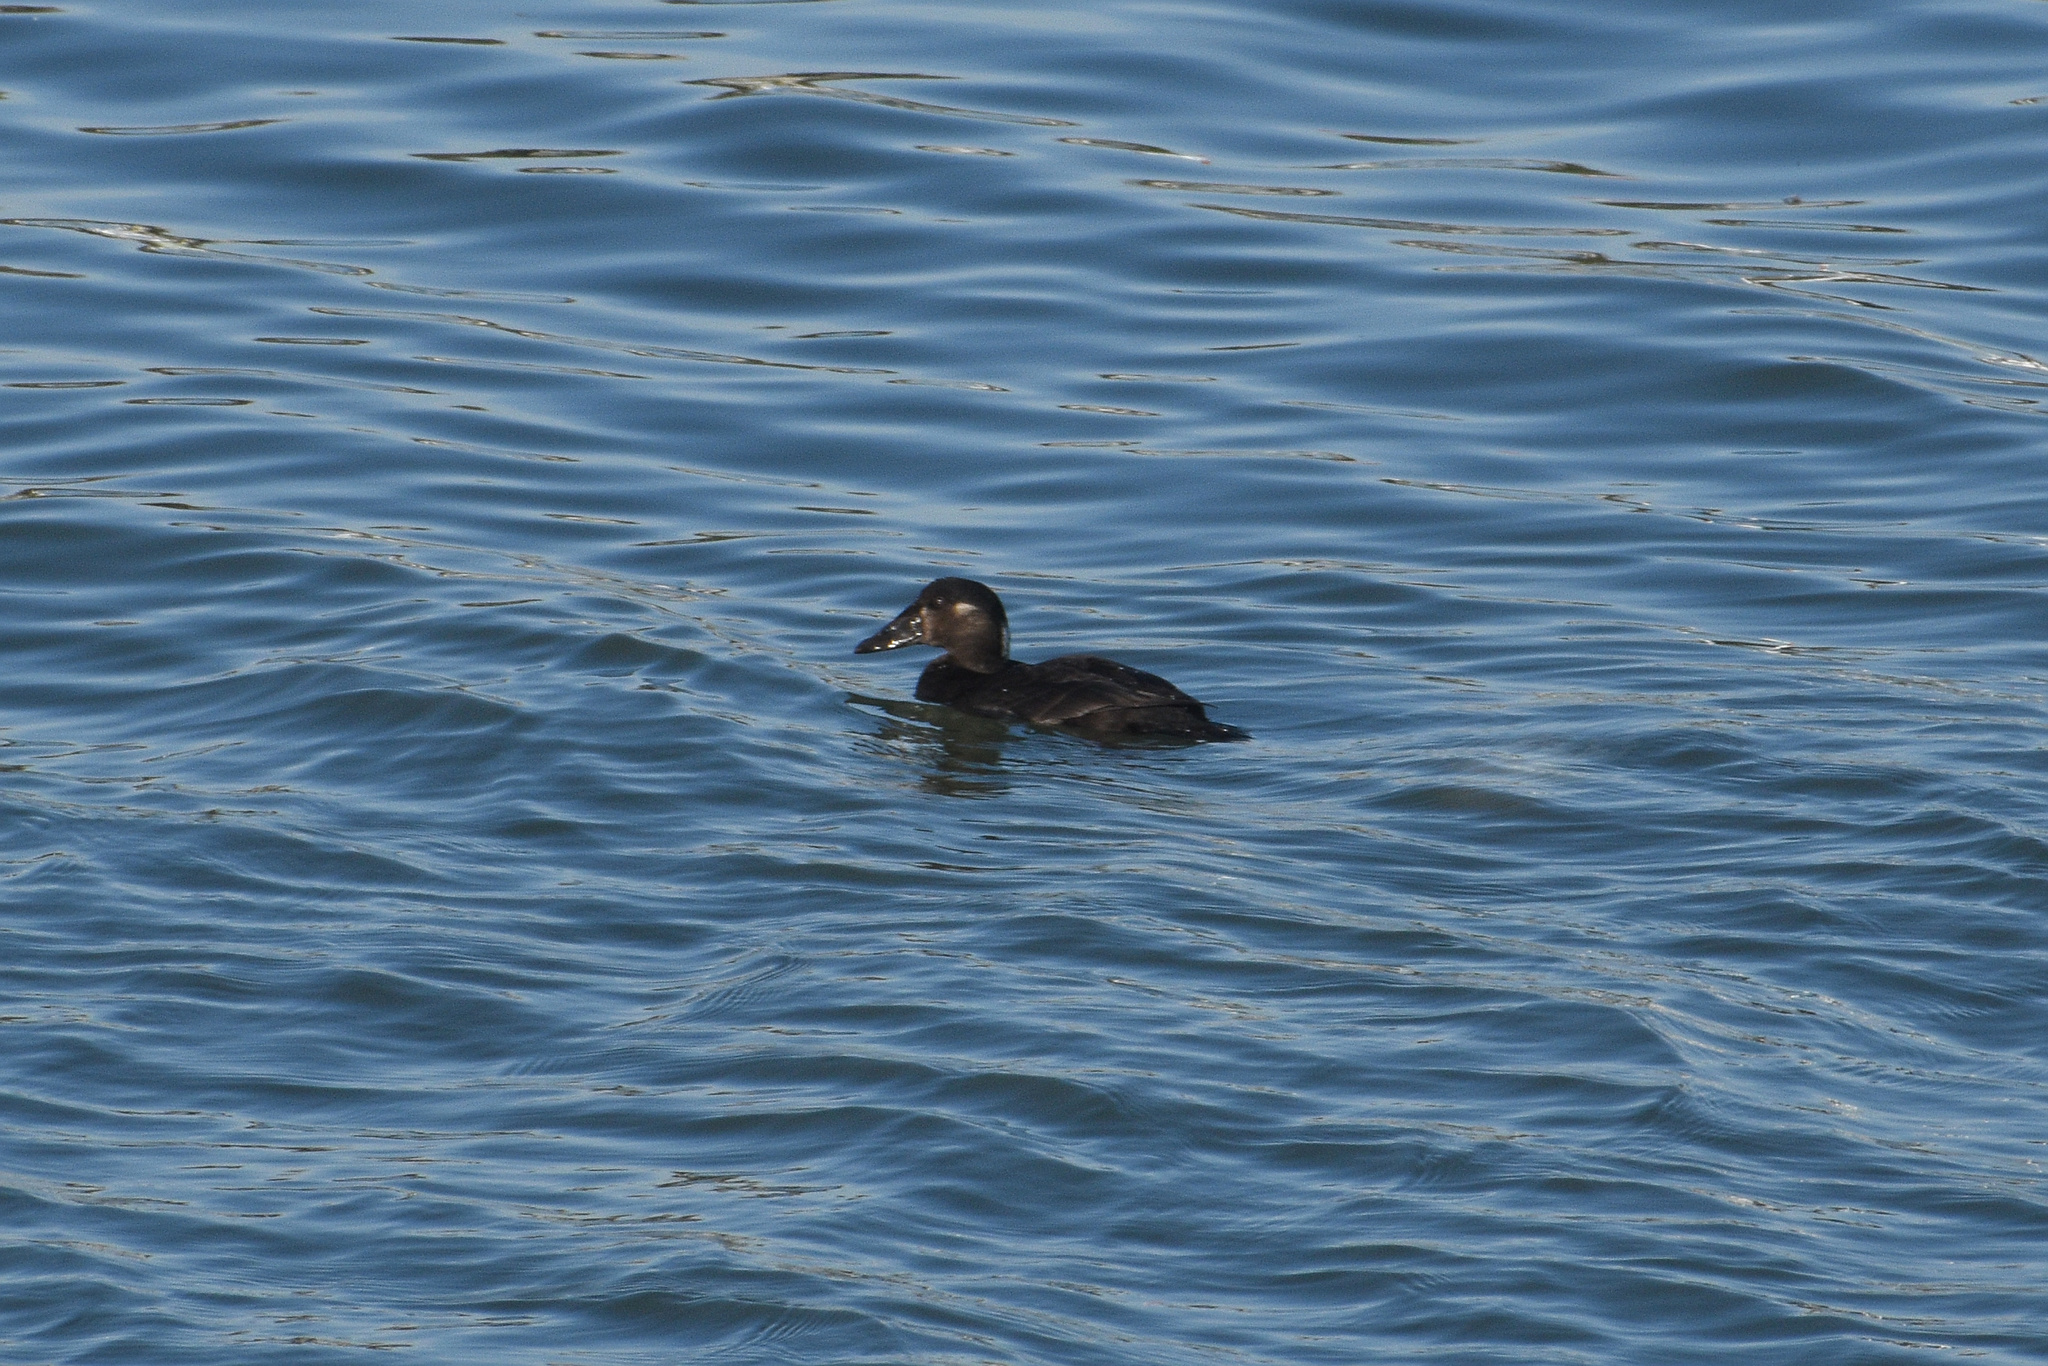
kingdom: Animalia
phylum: Chordata
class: Aves
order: Anseriformes
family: Anatidae
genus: Melanitta
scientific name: Melanitta perspicillata
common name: Surf scoter
